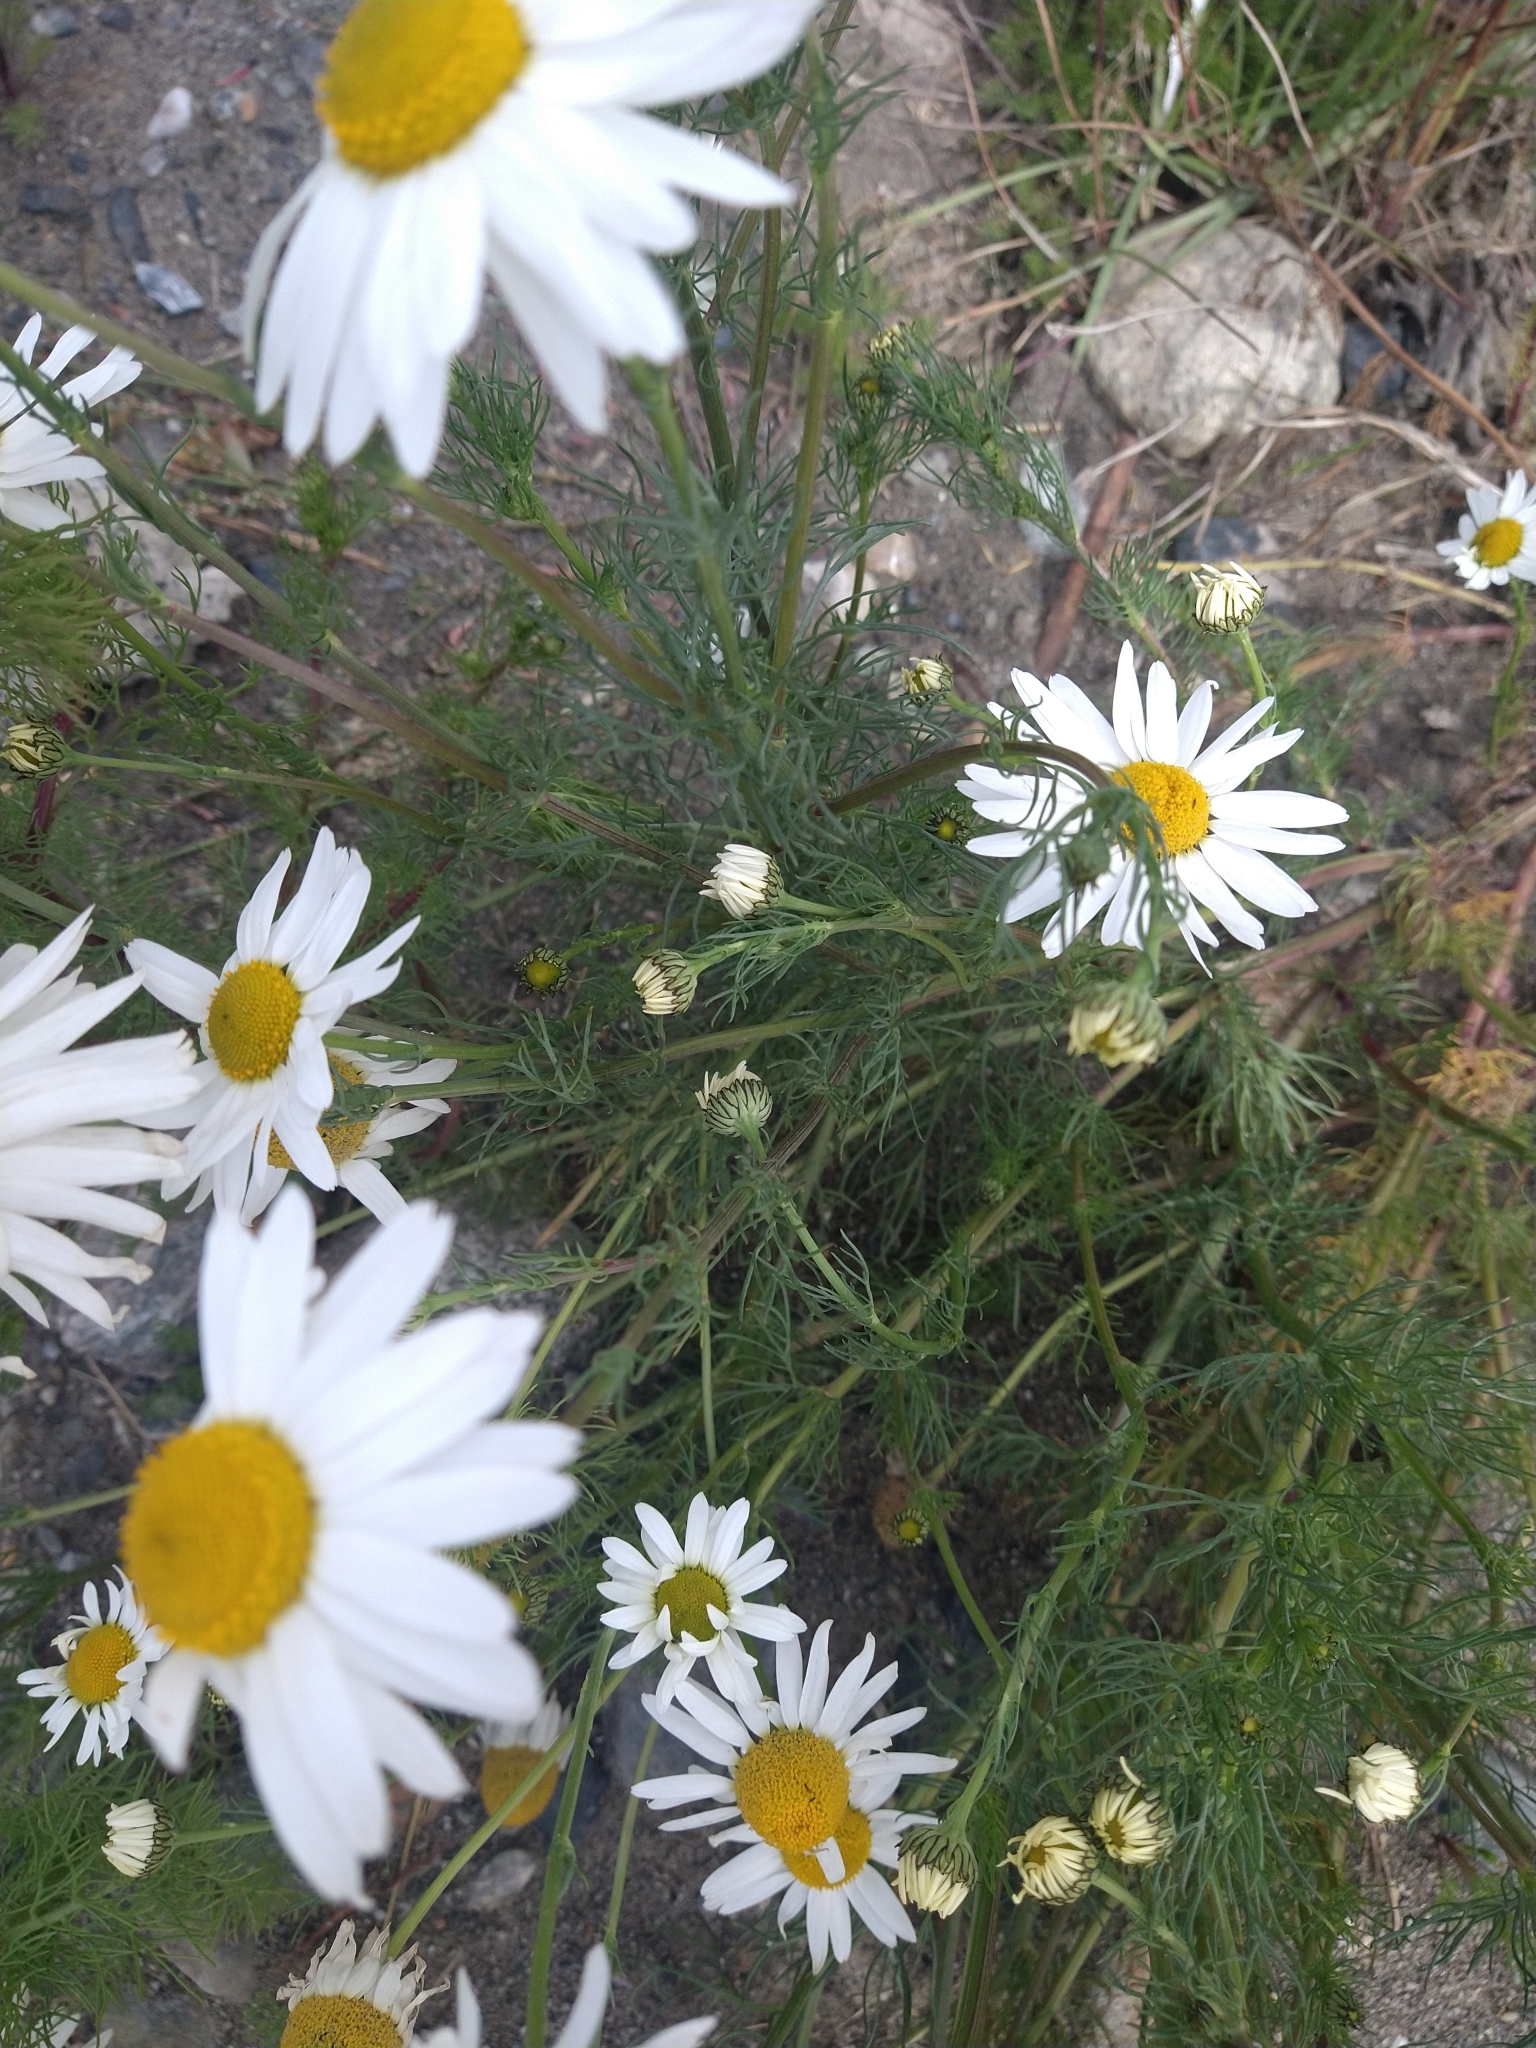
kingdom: Plantae
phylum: Tracheophyta
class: Magnoliopsida
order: Asterales
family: Asteraceae
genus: Tripleurospermum
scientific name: Tripleurospermum inodorum
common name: Scentless mayweed
